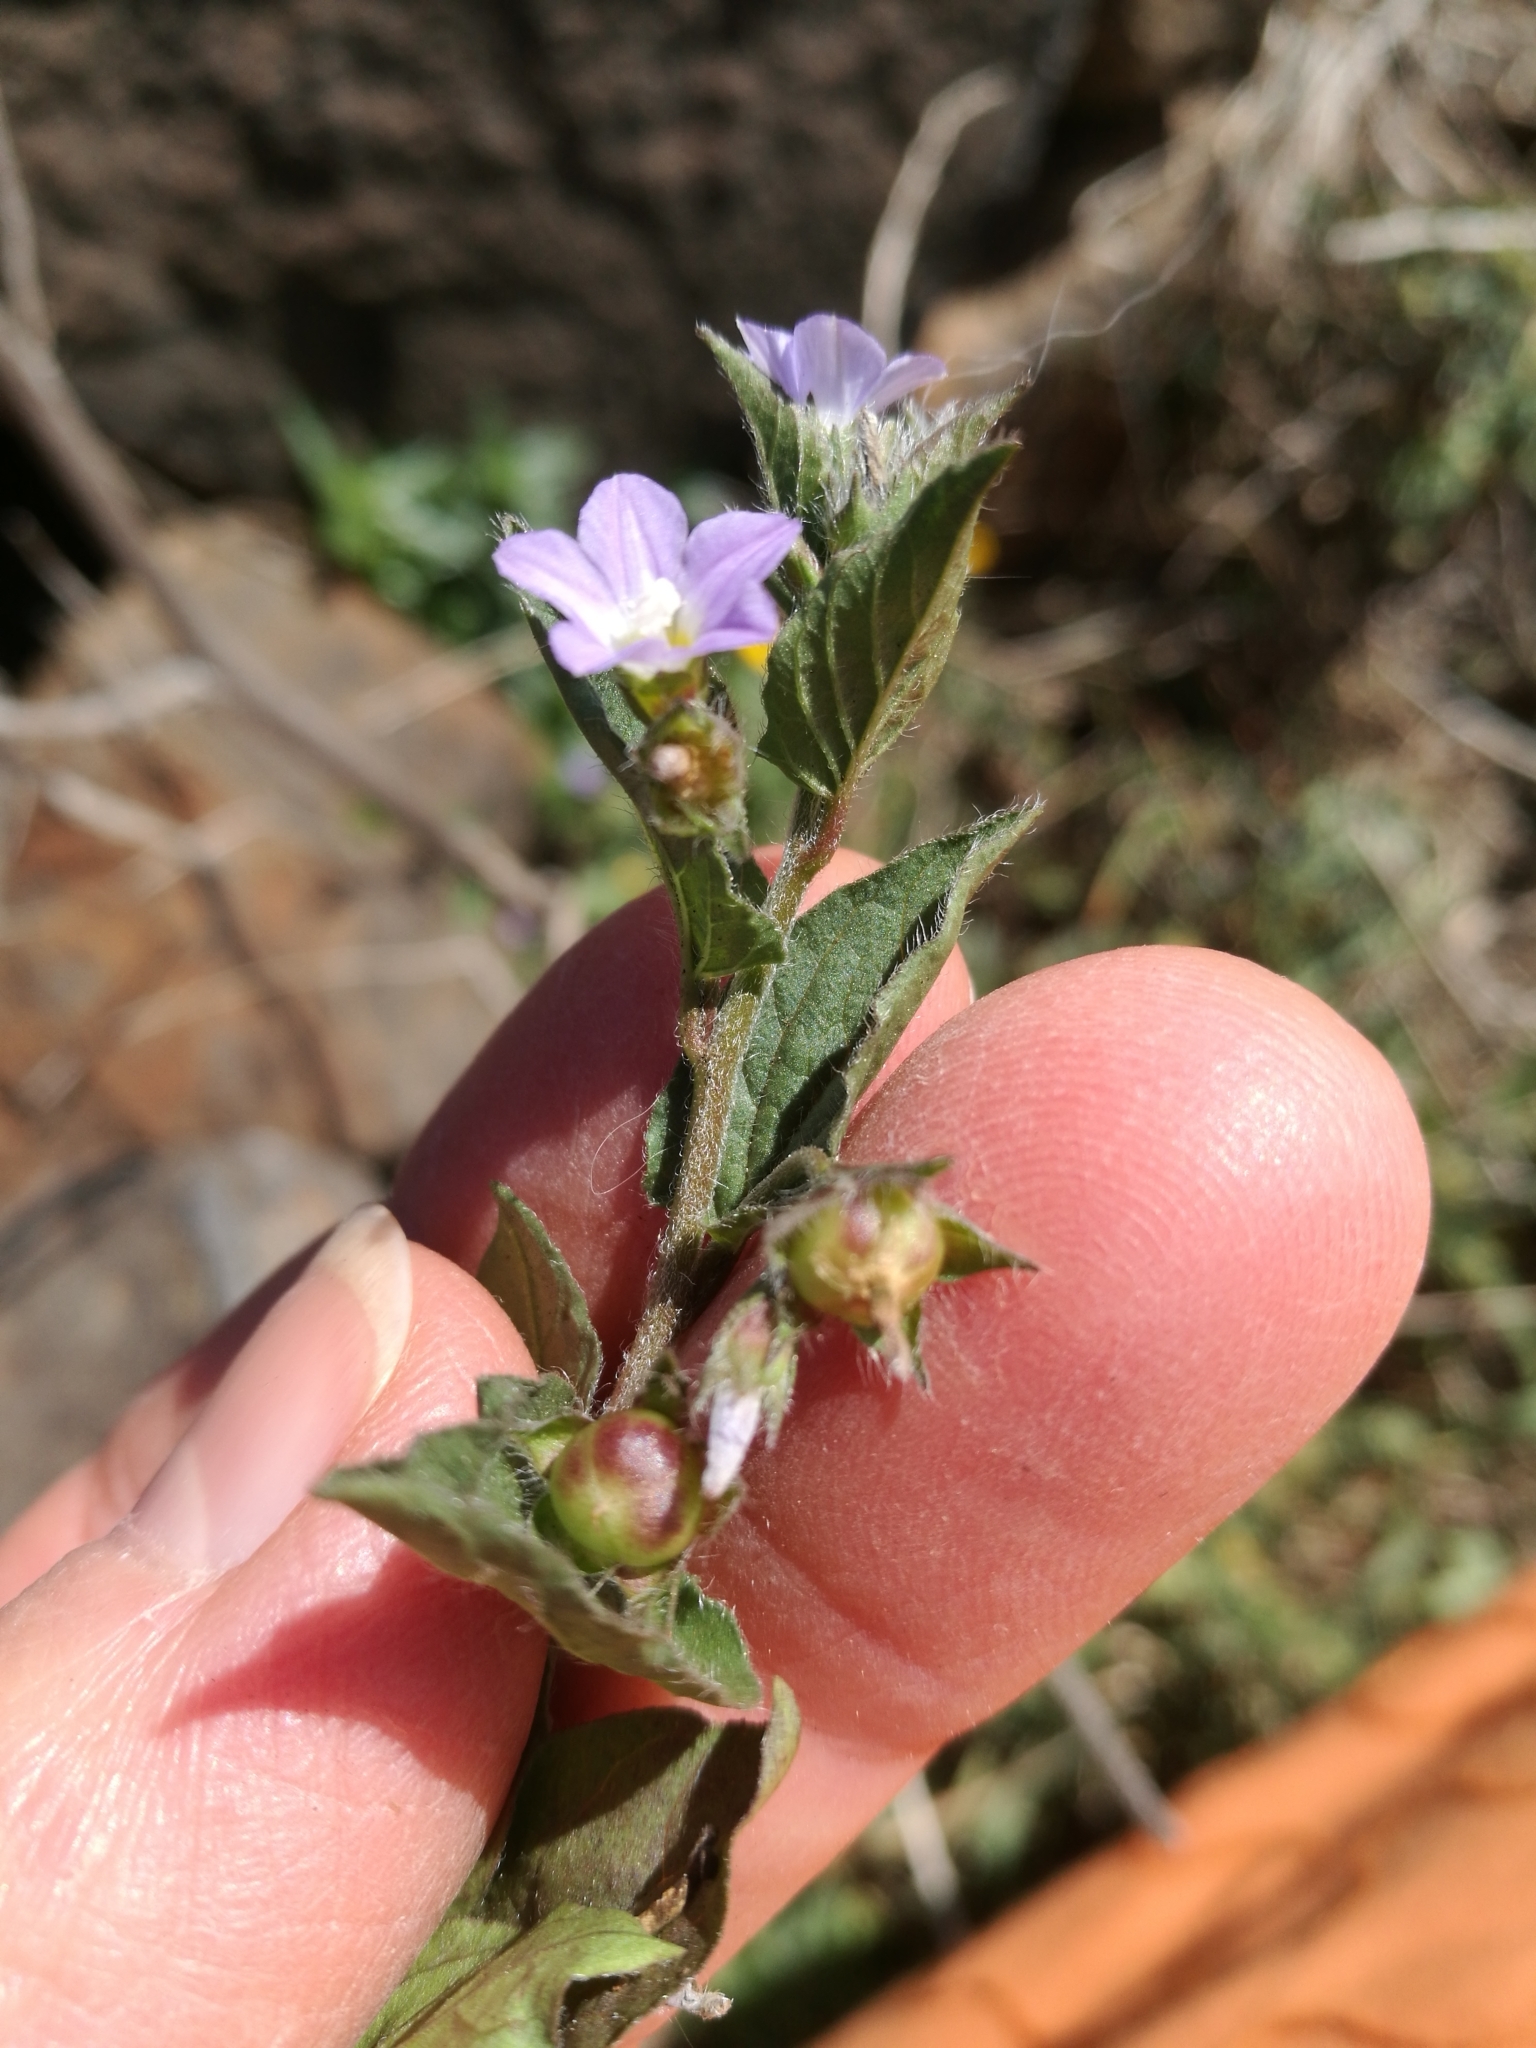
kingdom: Plantae
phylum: Tracheophyta
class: Magnoliopsida
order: Solanales
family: Convolvulaceae
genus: Convolvulus
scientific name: Convolvulus siculus
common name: Small blue-convolvulus
